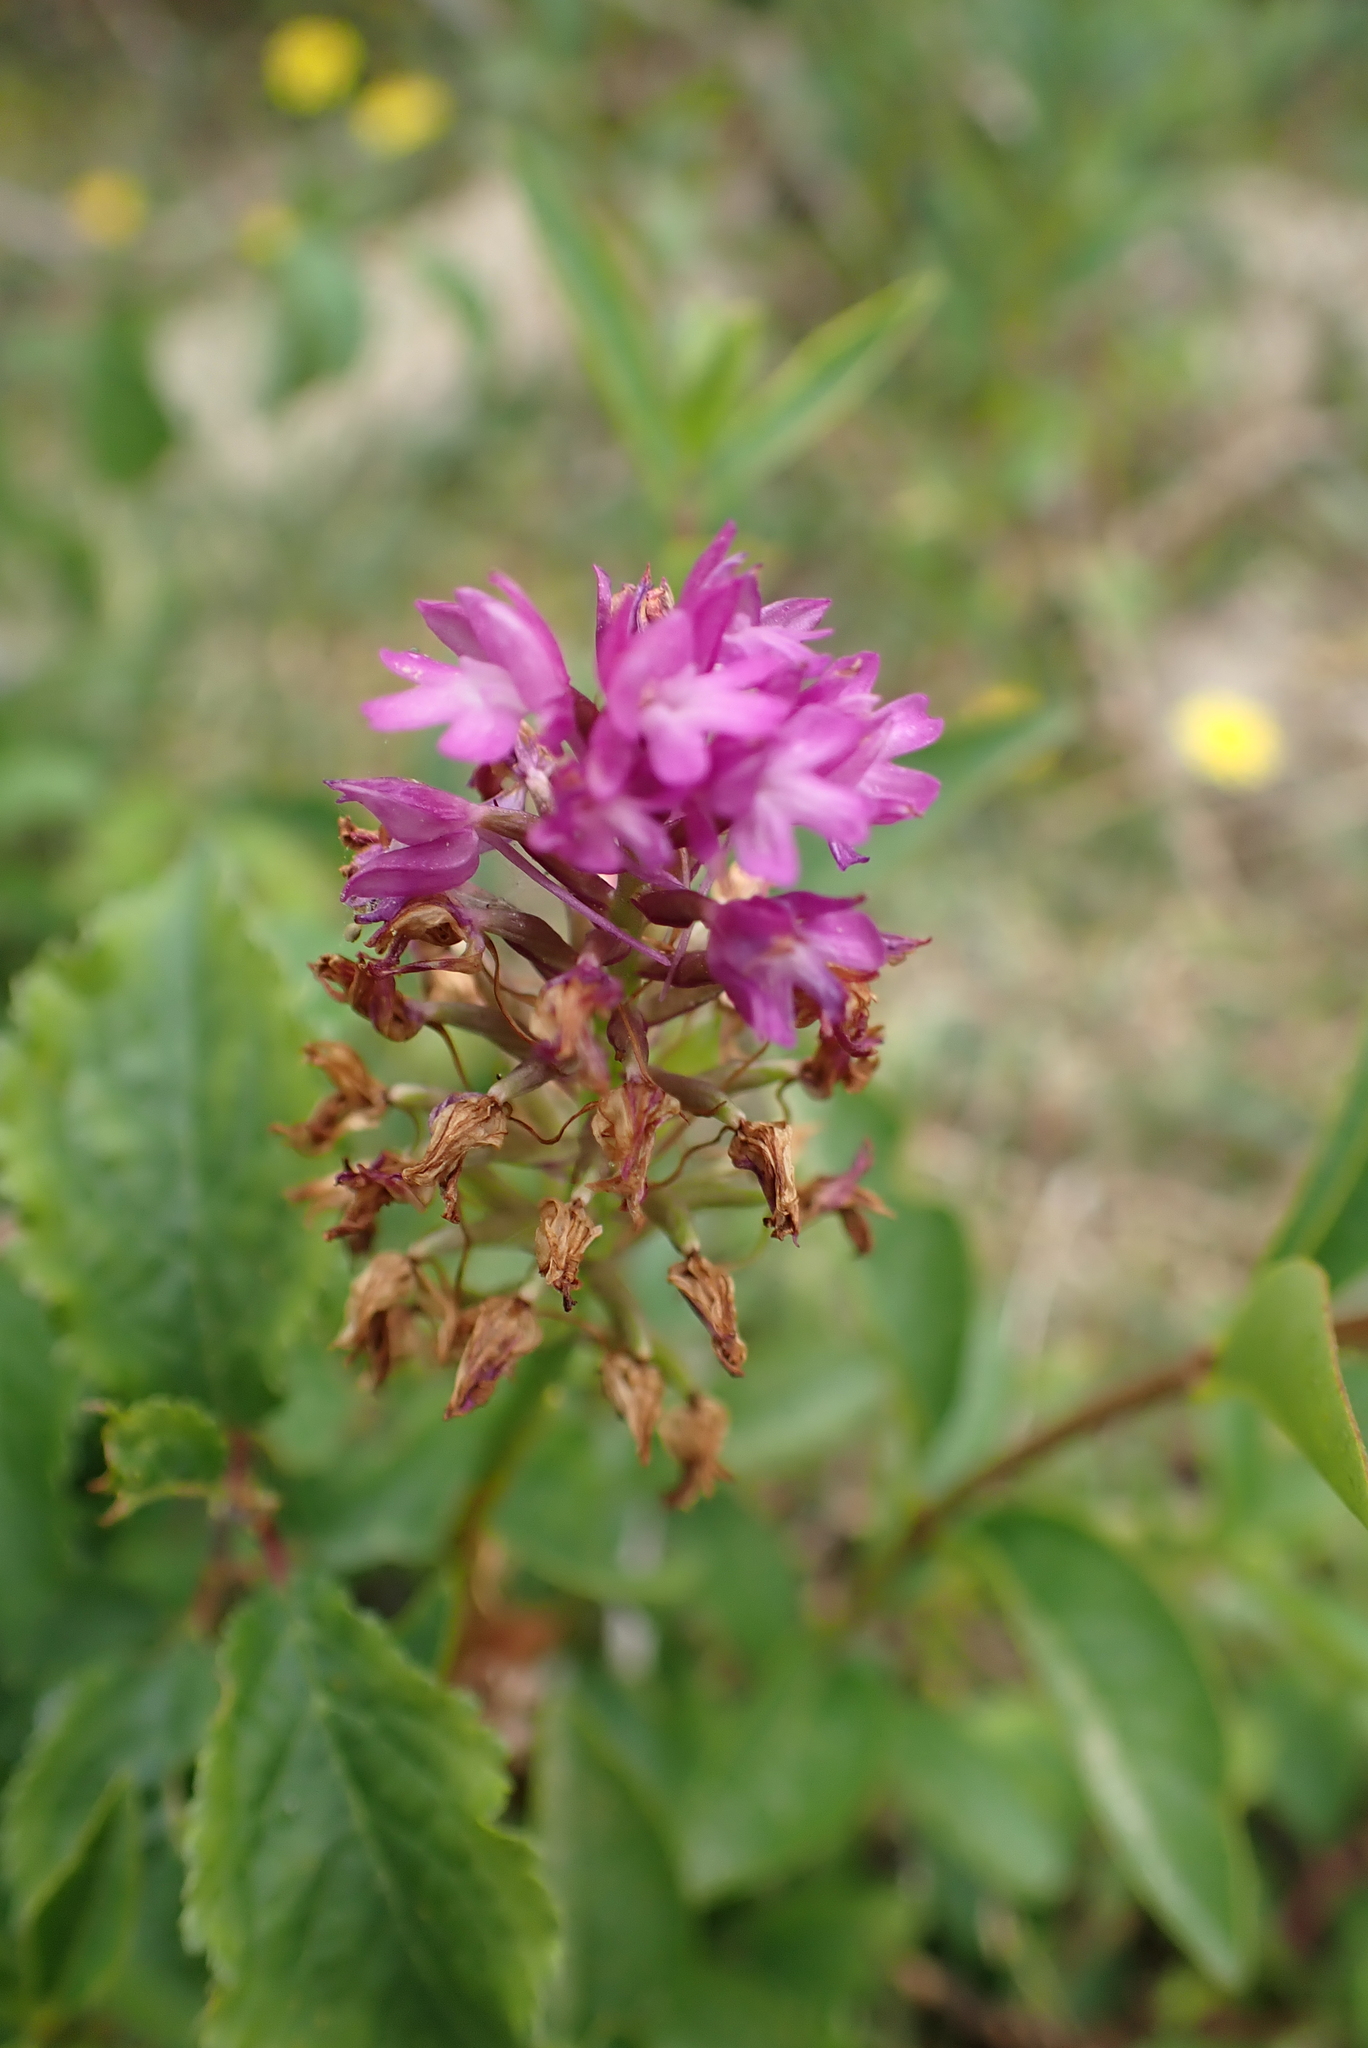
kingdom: Plantae
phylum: Tracheophyta
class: Liliopsida
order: Asparagales
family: Orchidaceae
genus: Anacamptis
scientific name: Anacamptis pyramidalis
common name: Pyramidal orchid
